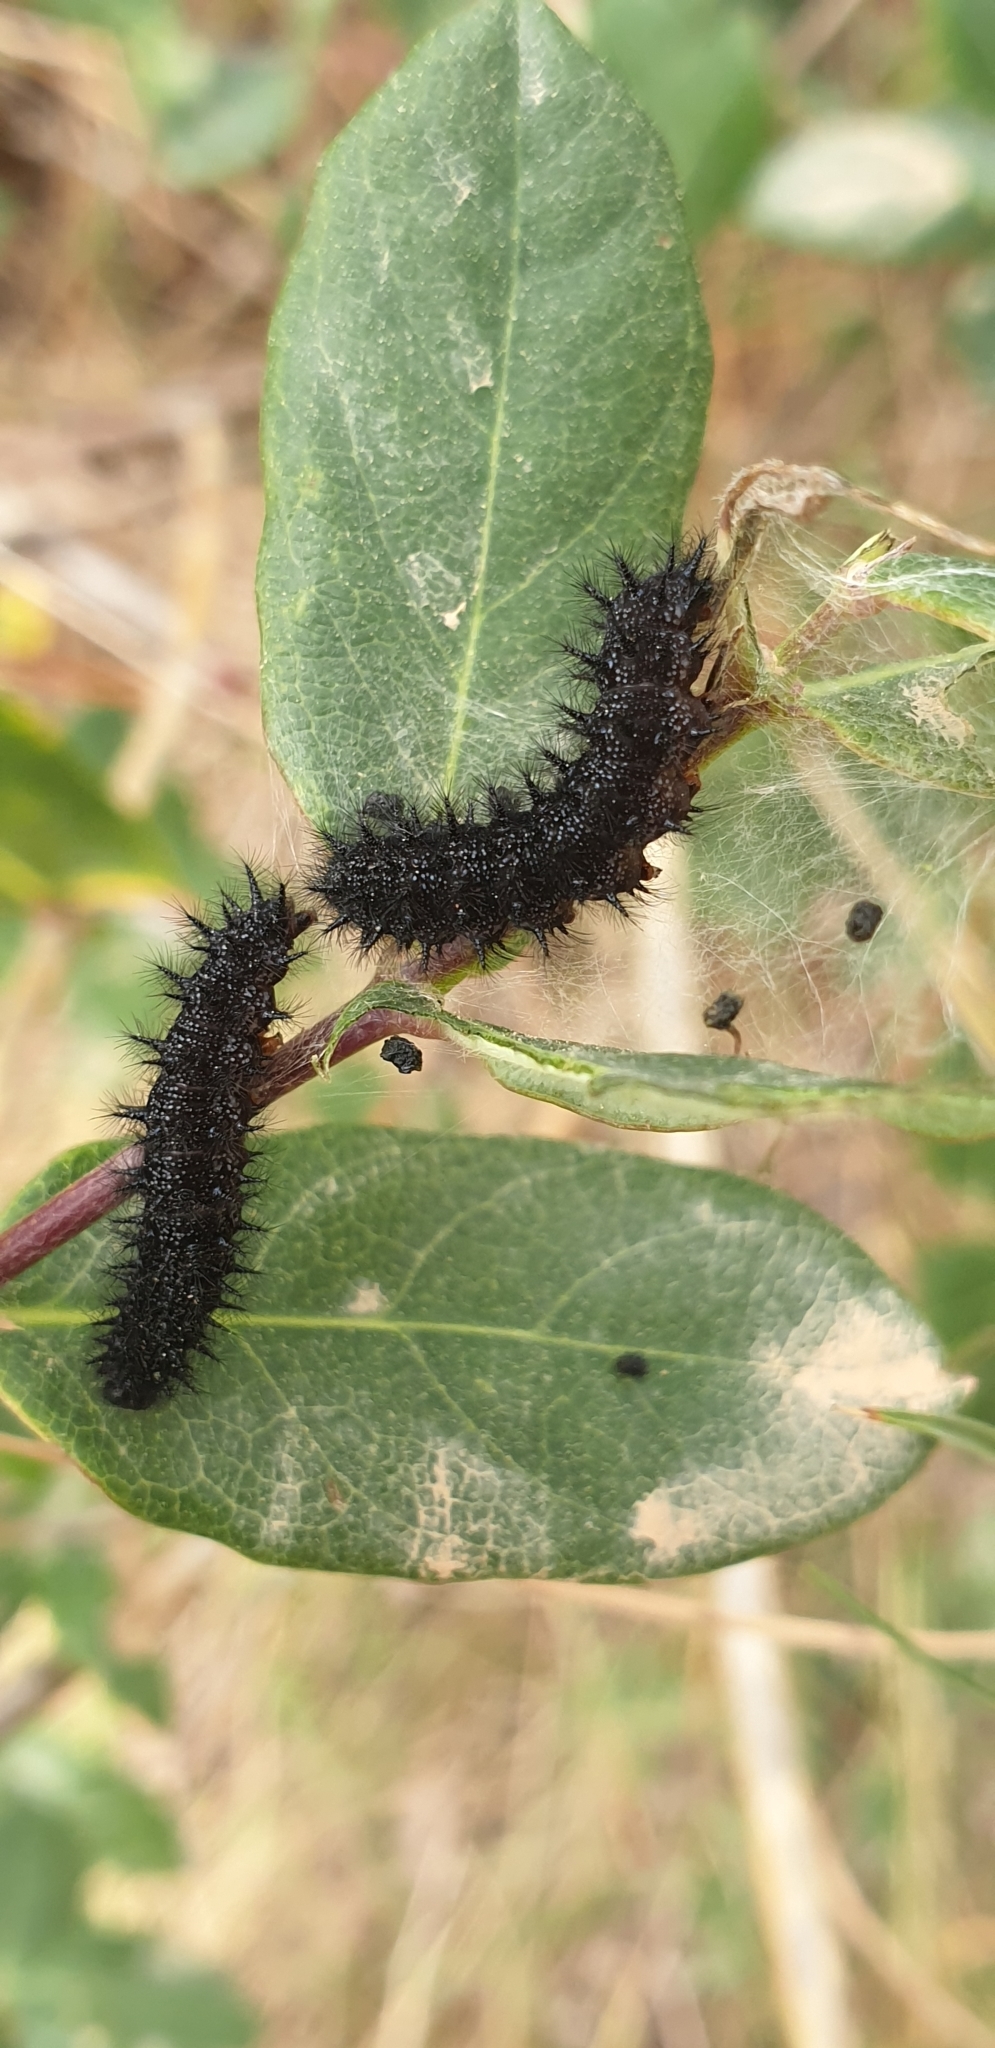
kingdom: Animalia
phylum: Arthropoda
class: Insecta
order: Lepidoptera
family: Nymphalidae
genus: Euphydryas
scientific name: Euphydryas aurinia
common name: Marsh fritillary
